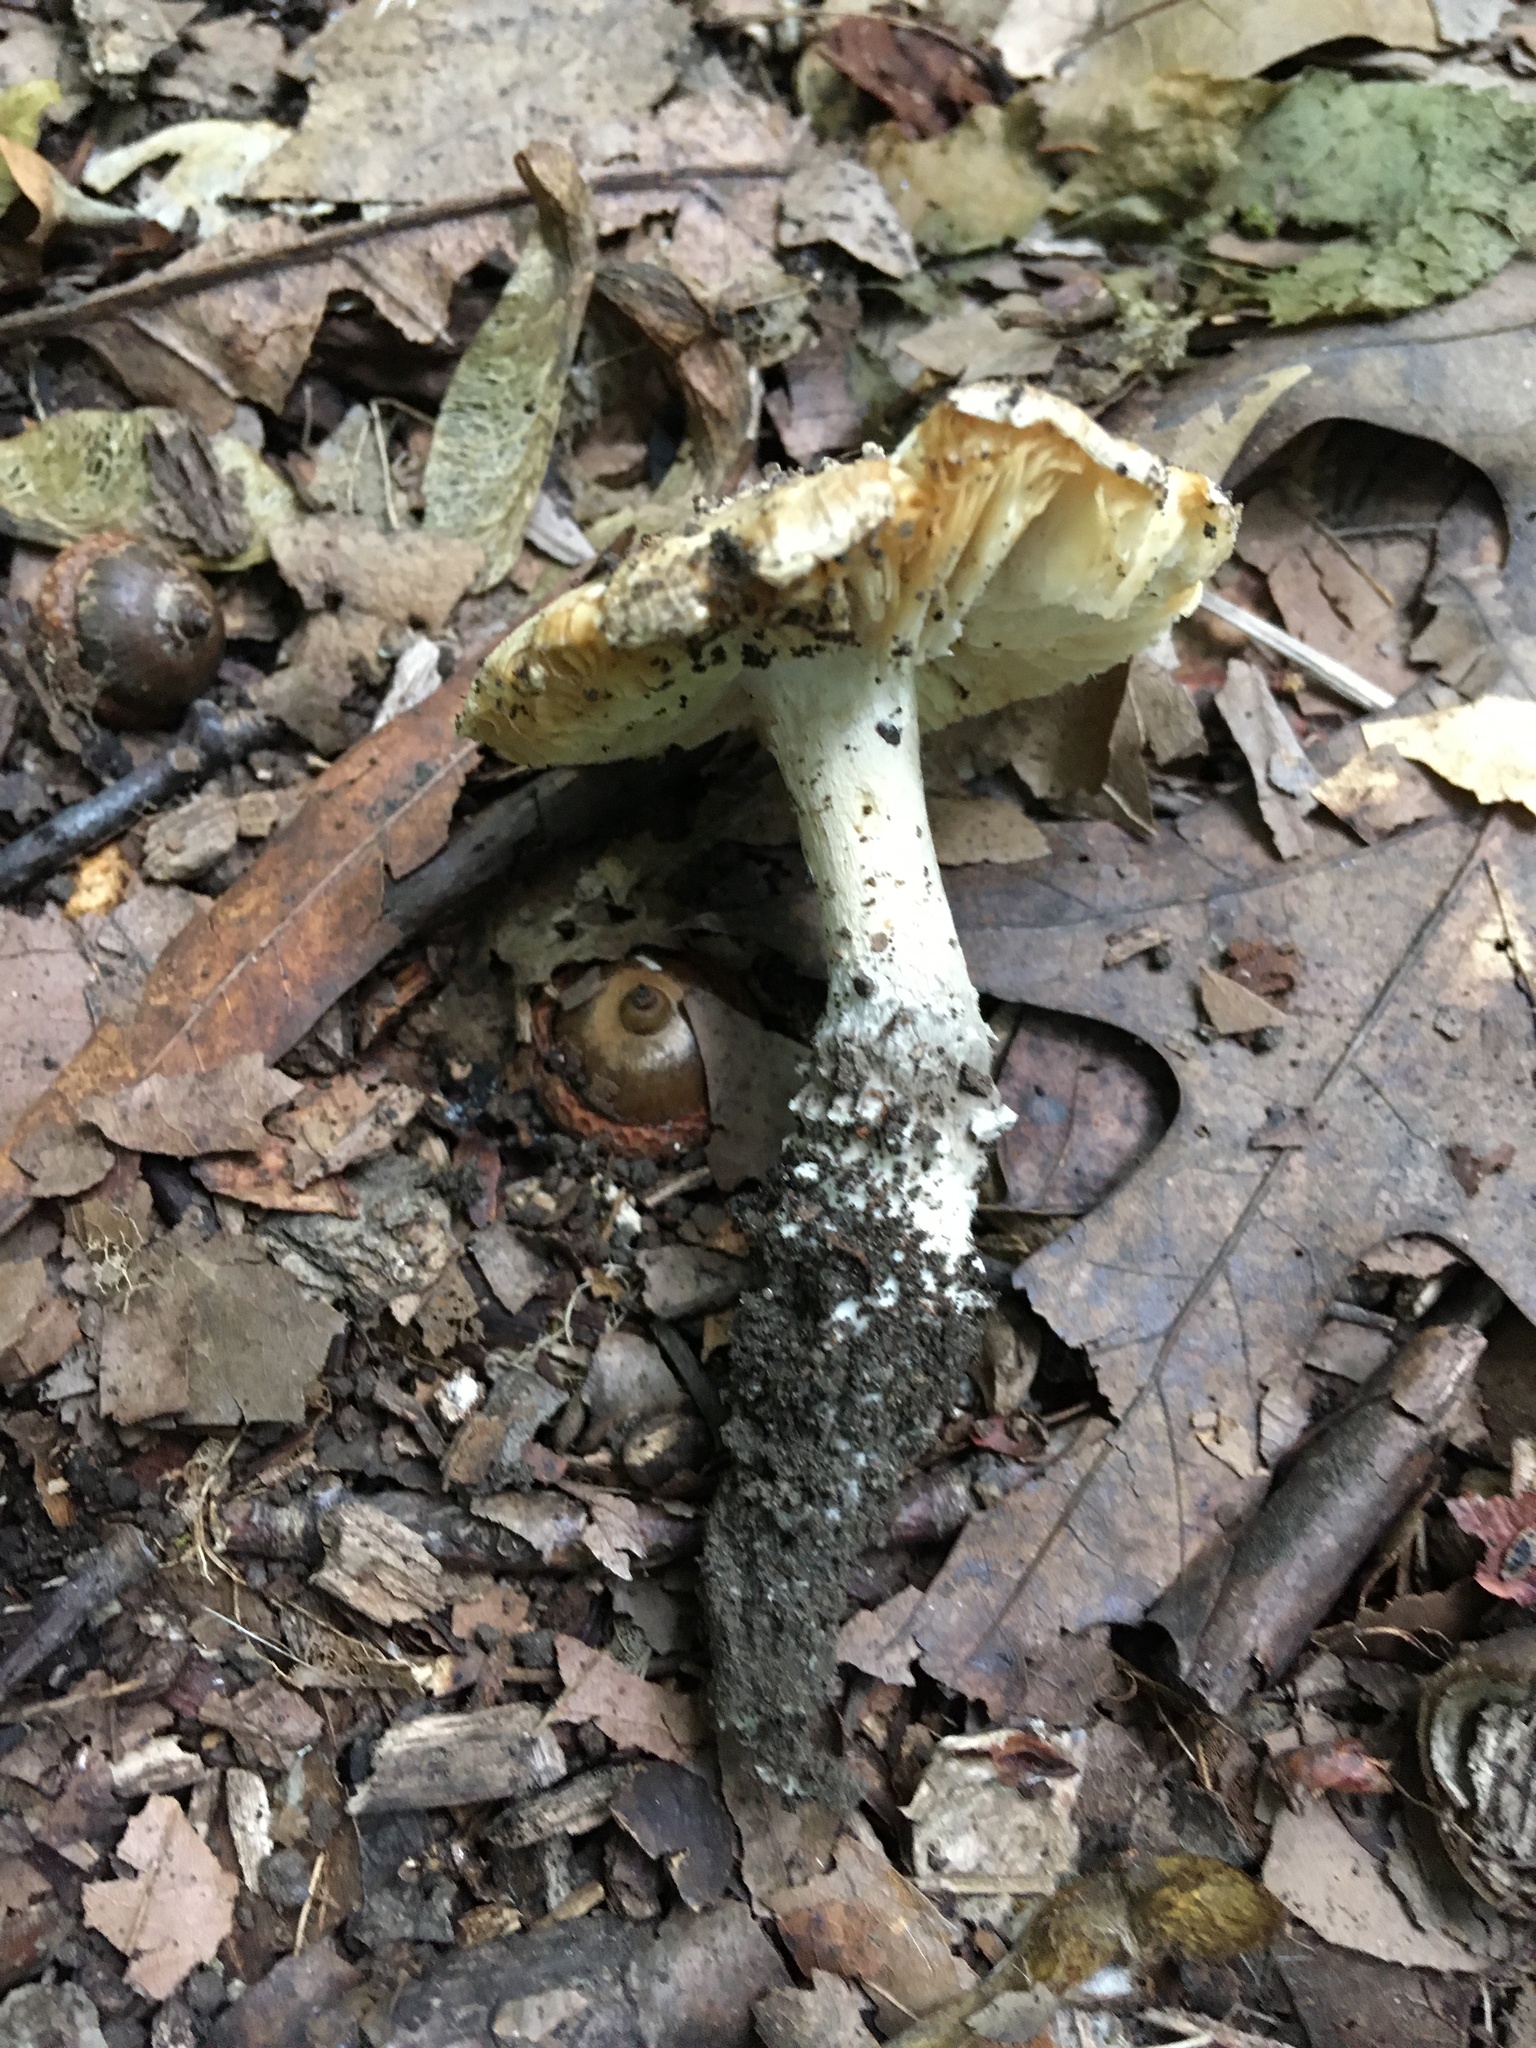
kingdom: Fungi
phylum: Basidiomycota
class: Agaricomycetes
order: Agaricales
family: Amanitaceae
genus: Amanita
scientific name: Amanita onusta
